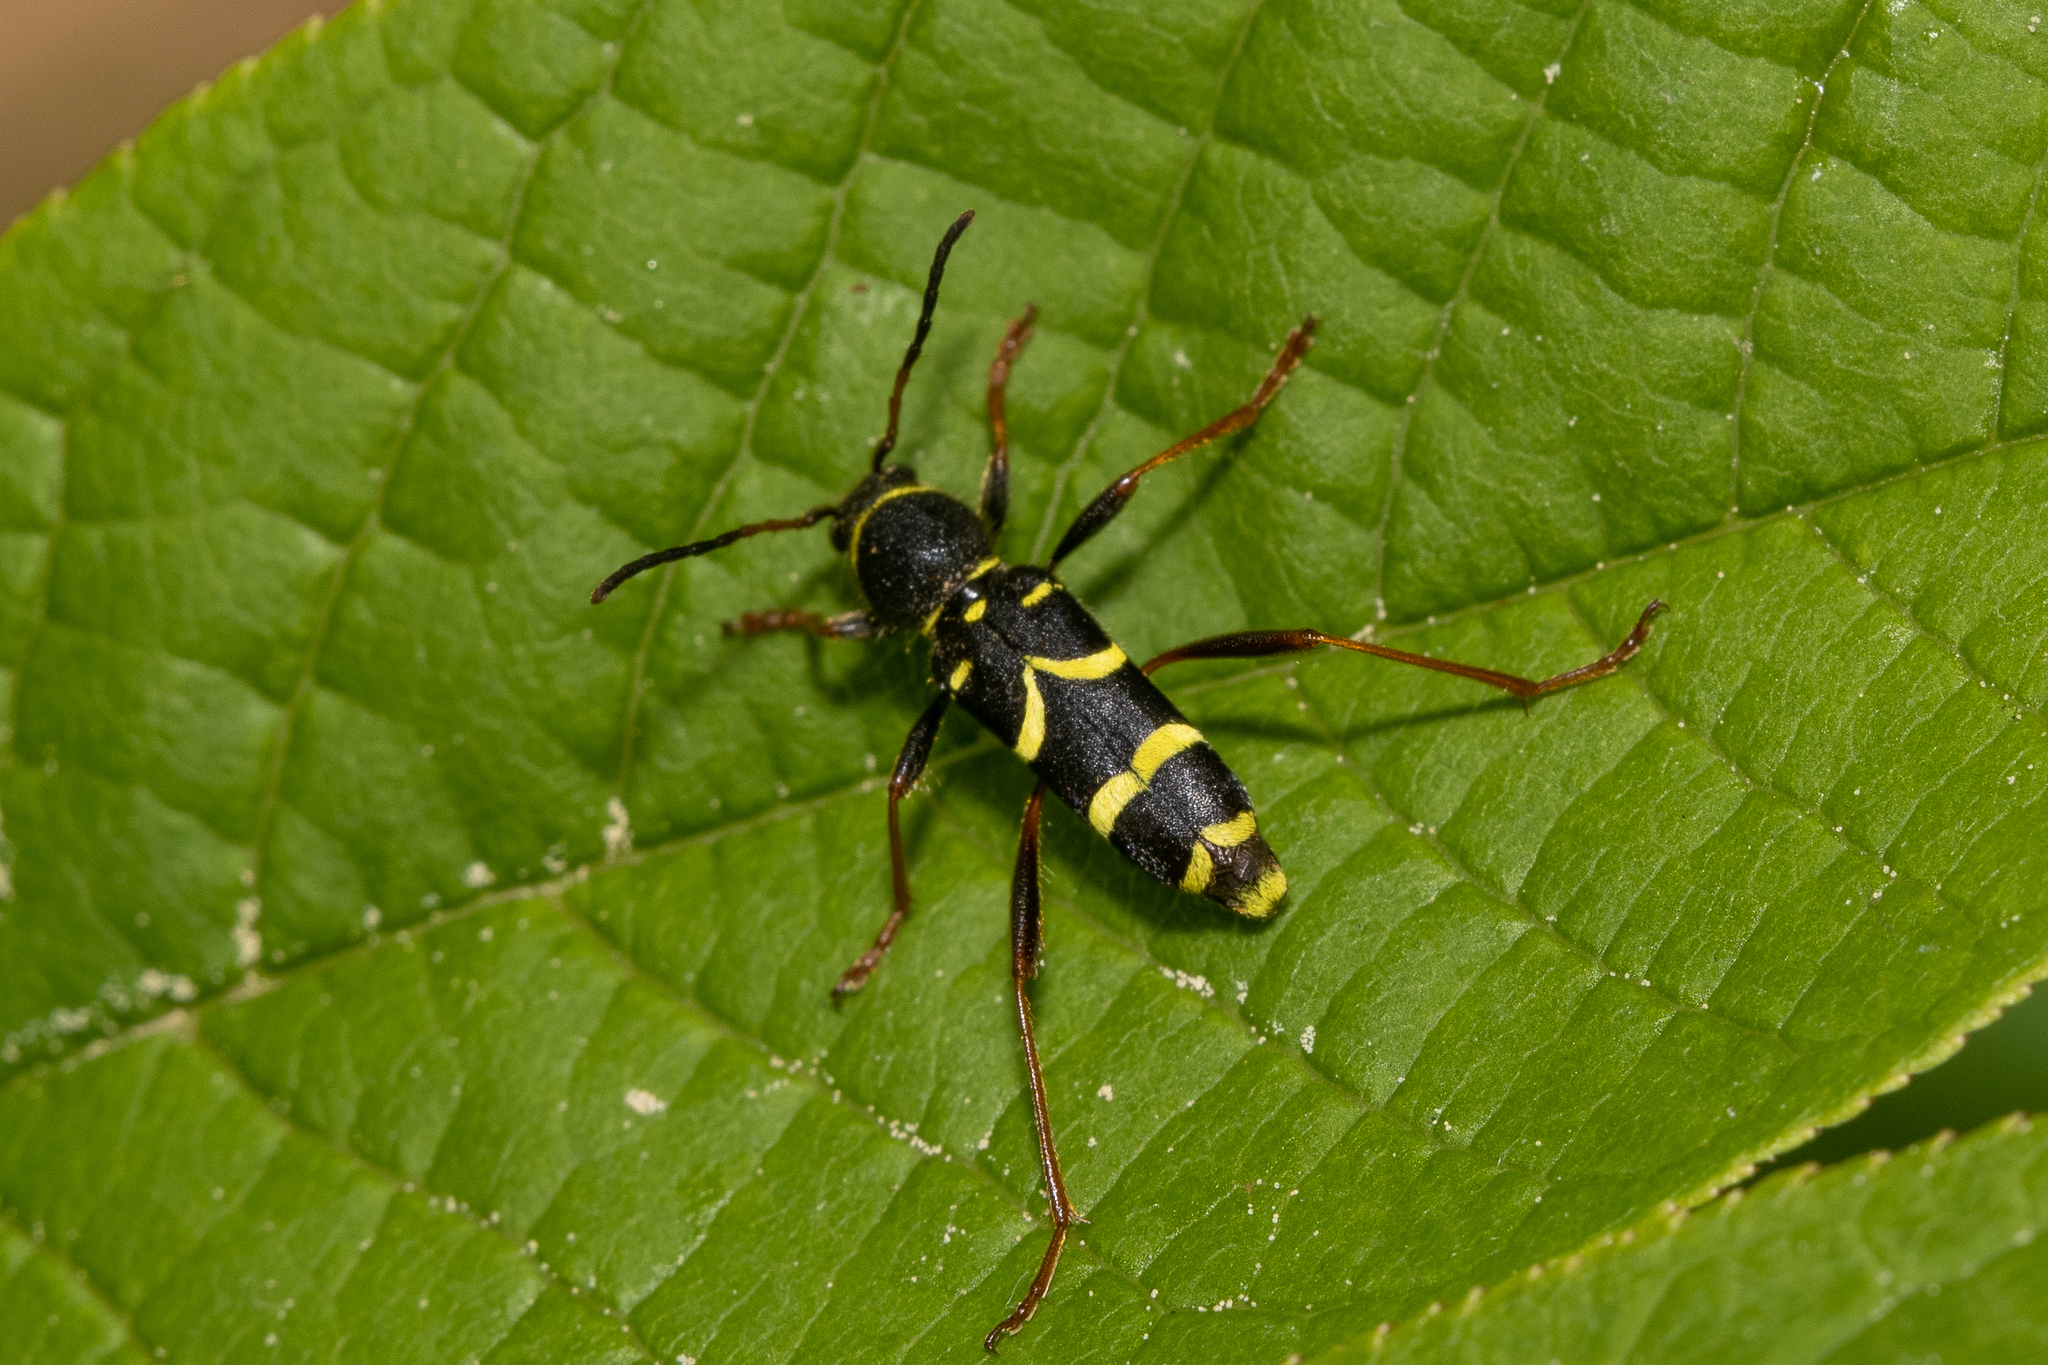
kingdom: Animalia
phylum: Arthropoda
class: Insecta
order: Coleoptera
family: Cerambycidae
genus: Clytus
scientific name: Clytus arietis
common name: Wasp beetle
